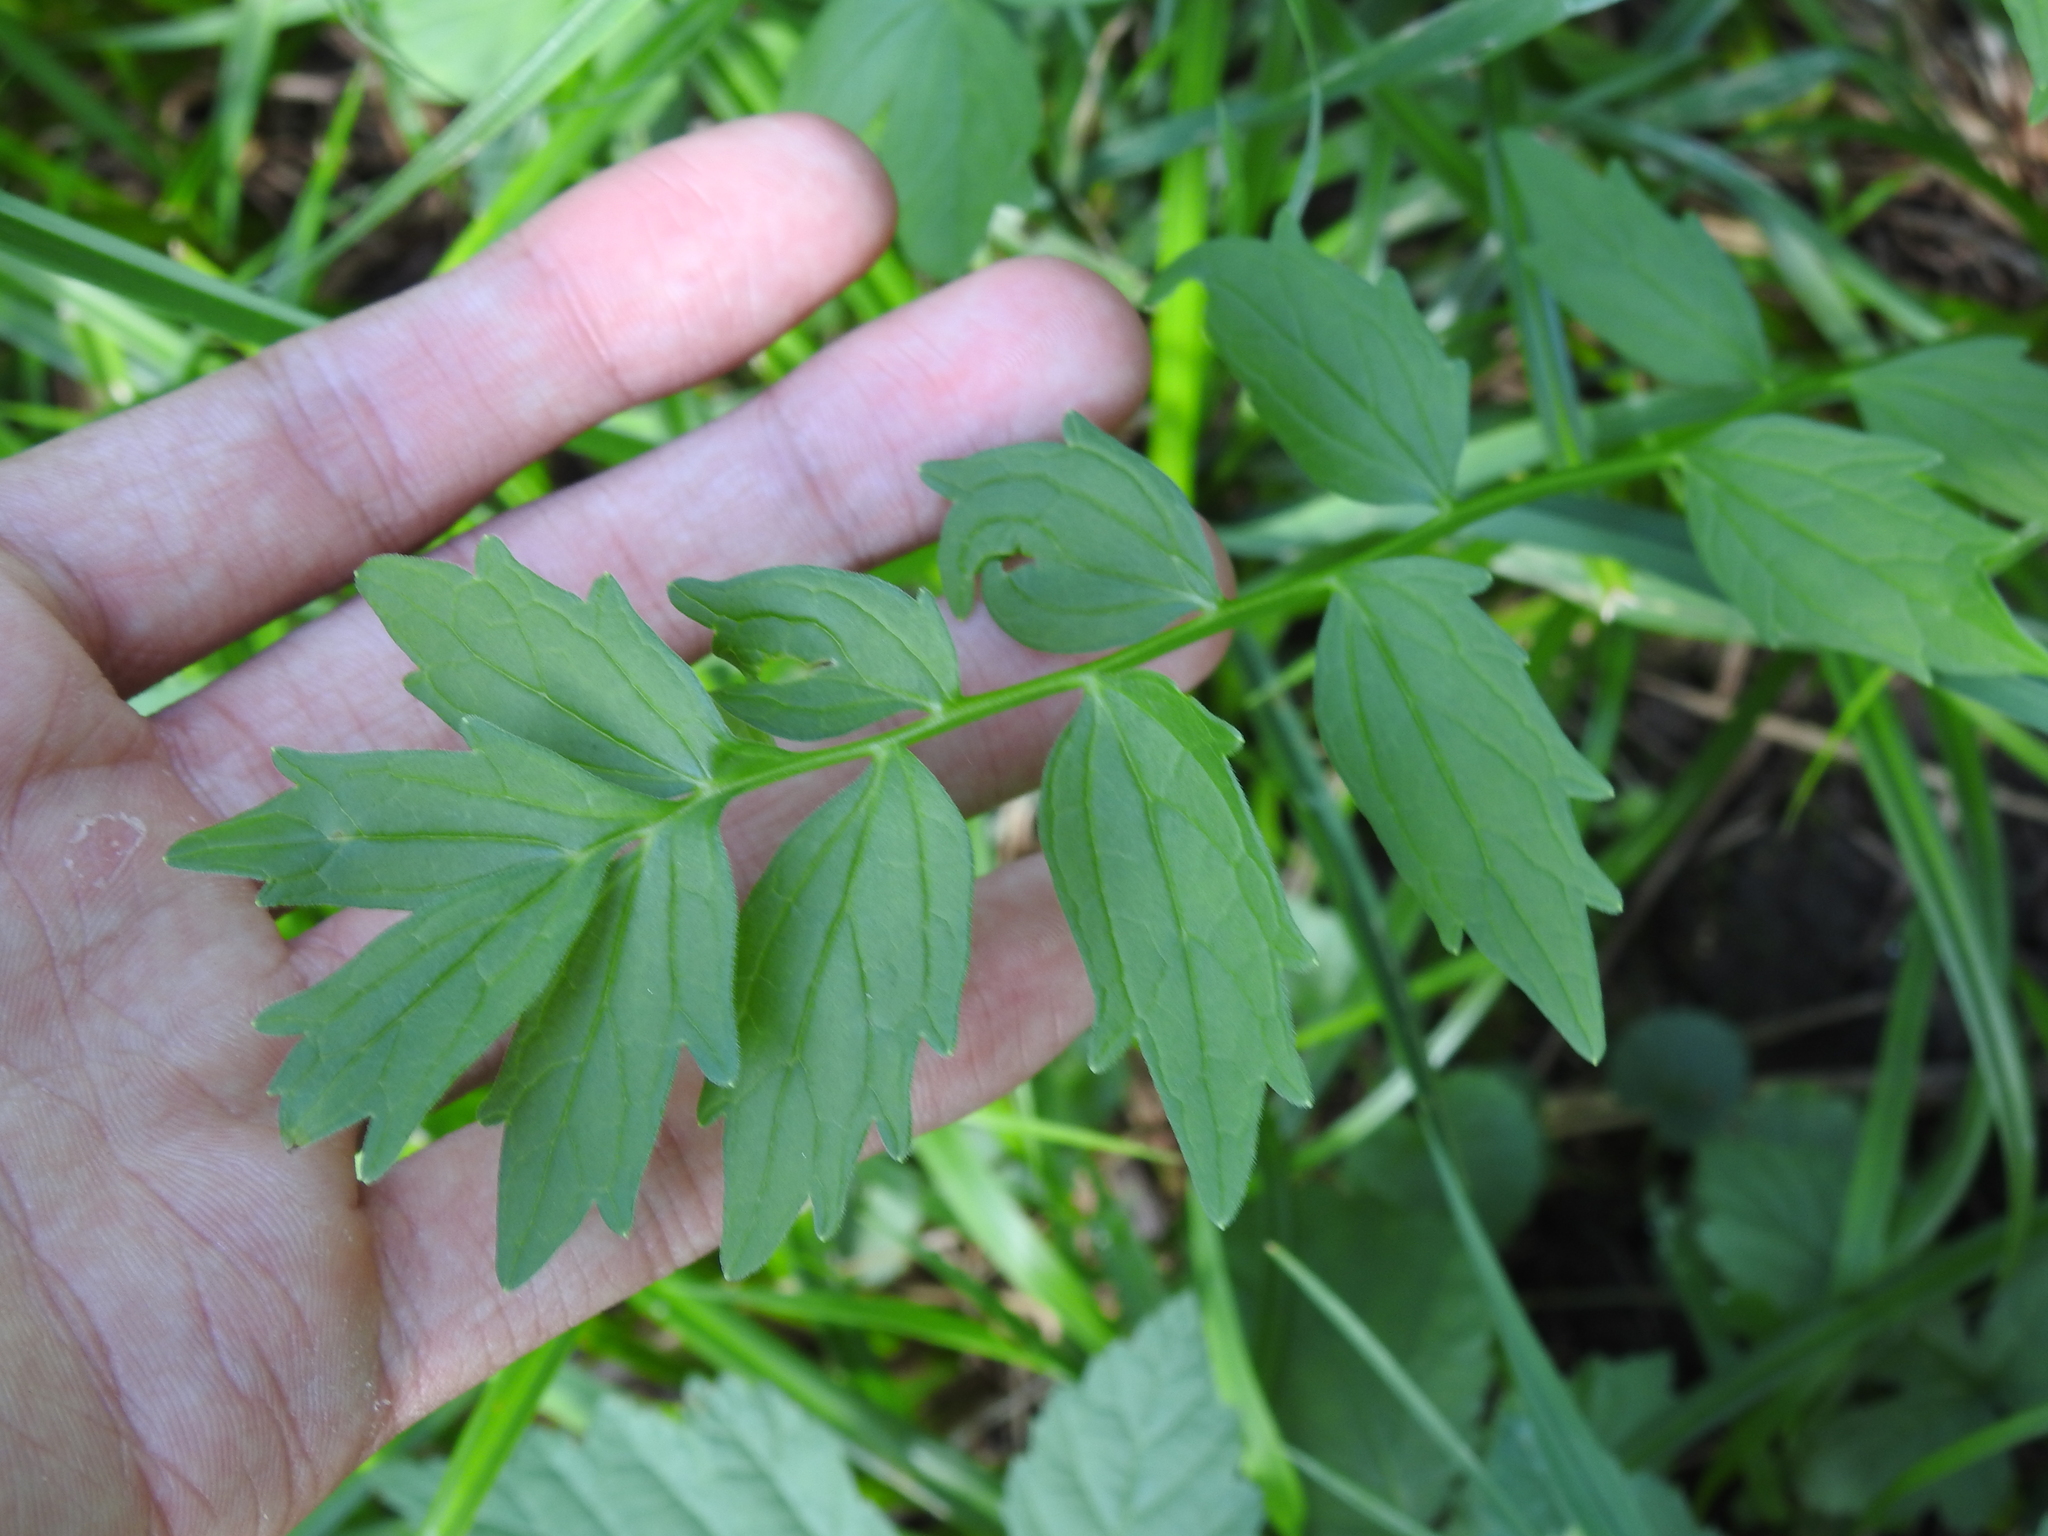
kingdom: Plantae
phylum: Tracheophyta
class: Magnoliopsida
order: Dipsacales
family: Caprifoliaceae
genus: Valeriana
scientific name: Valeriana officinalis
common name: Common valerian
